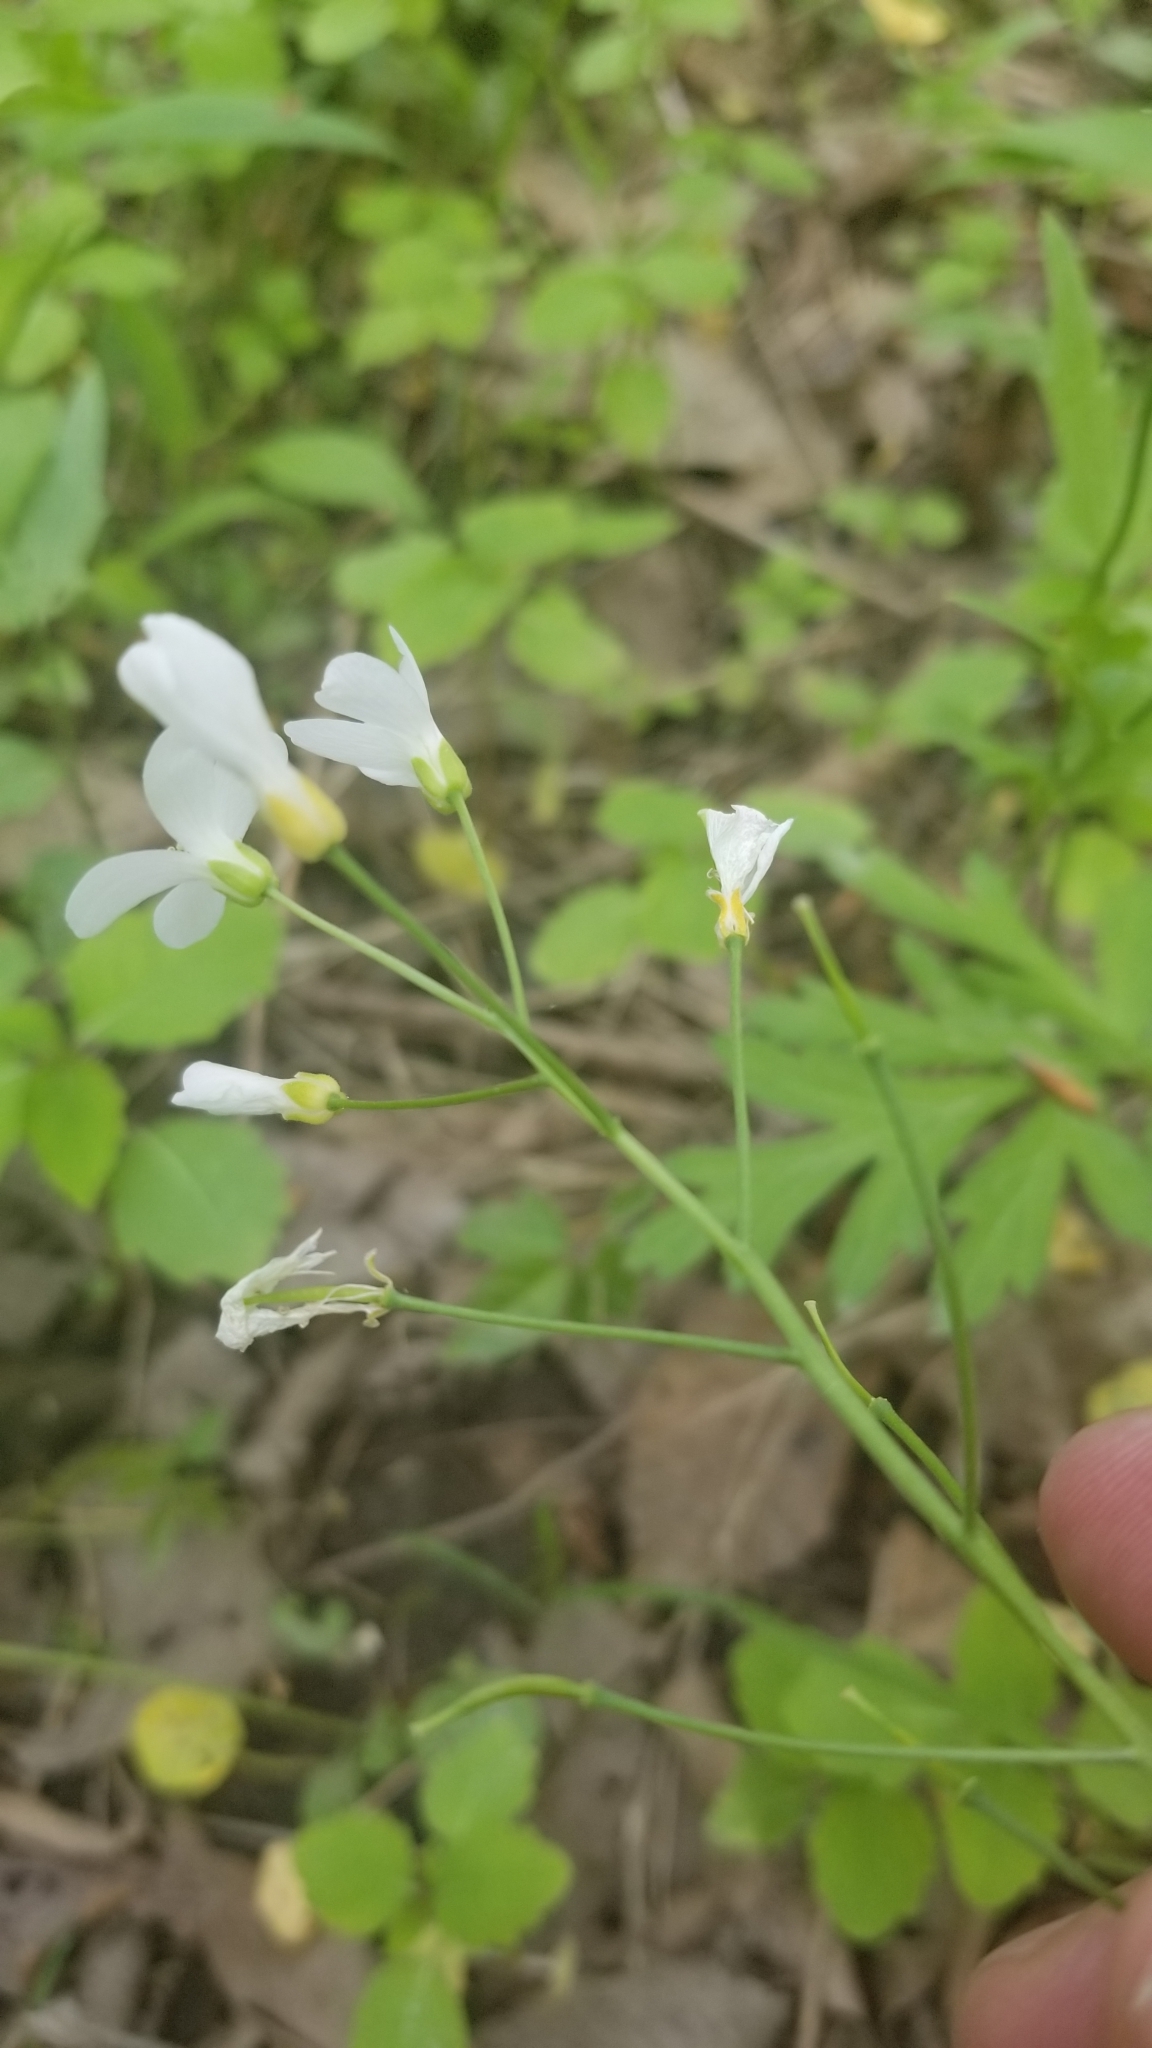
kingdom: Plantae
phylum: Tracheophyta
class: Magnoliopsida
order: Brassicales
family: Brassicaceae
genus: Cardamine
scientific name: Cardamine bulbosa
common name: Spring cress
